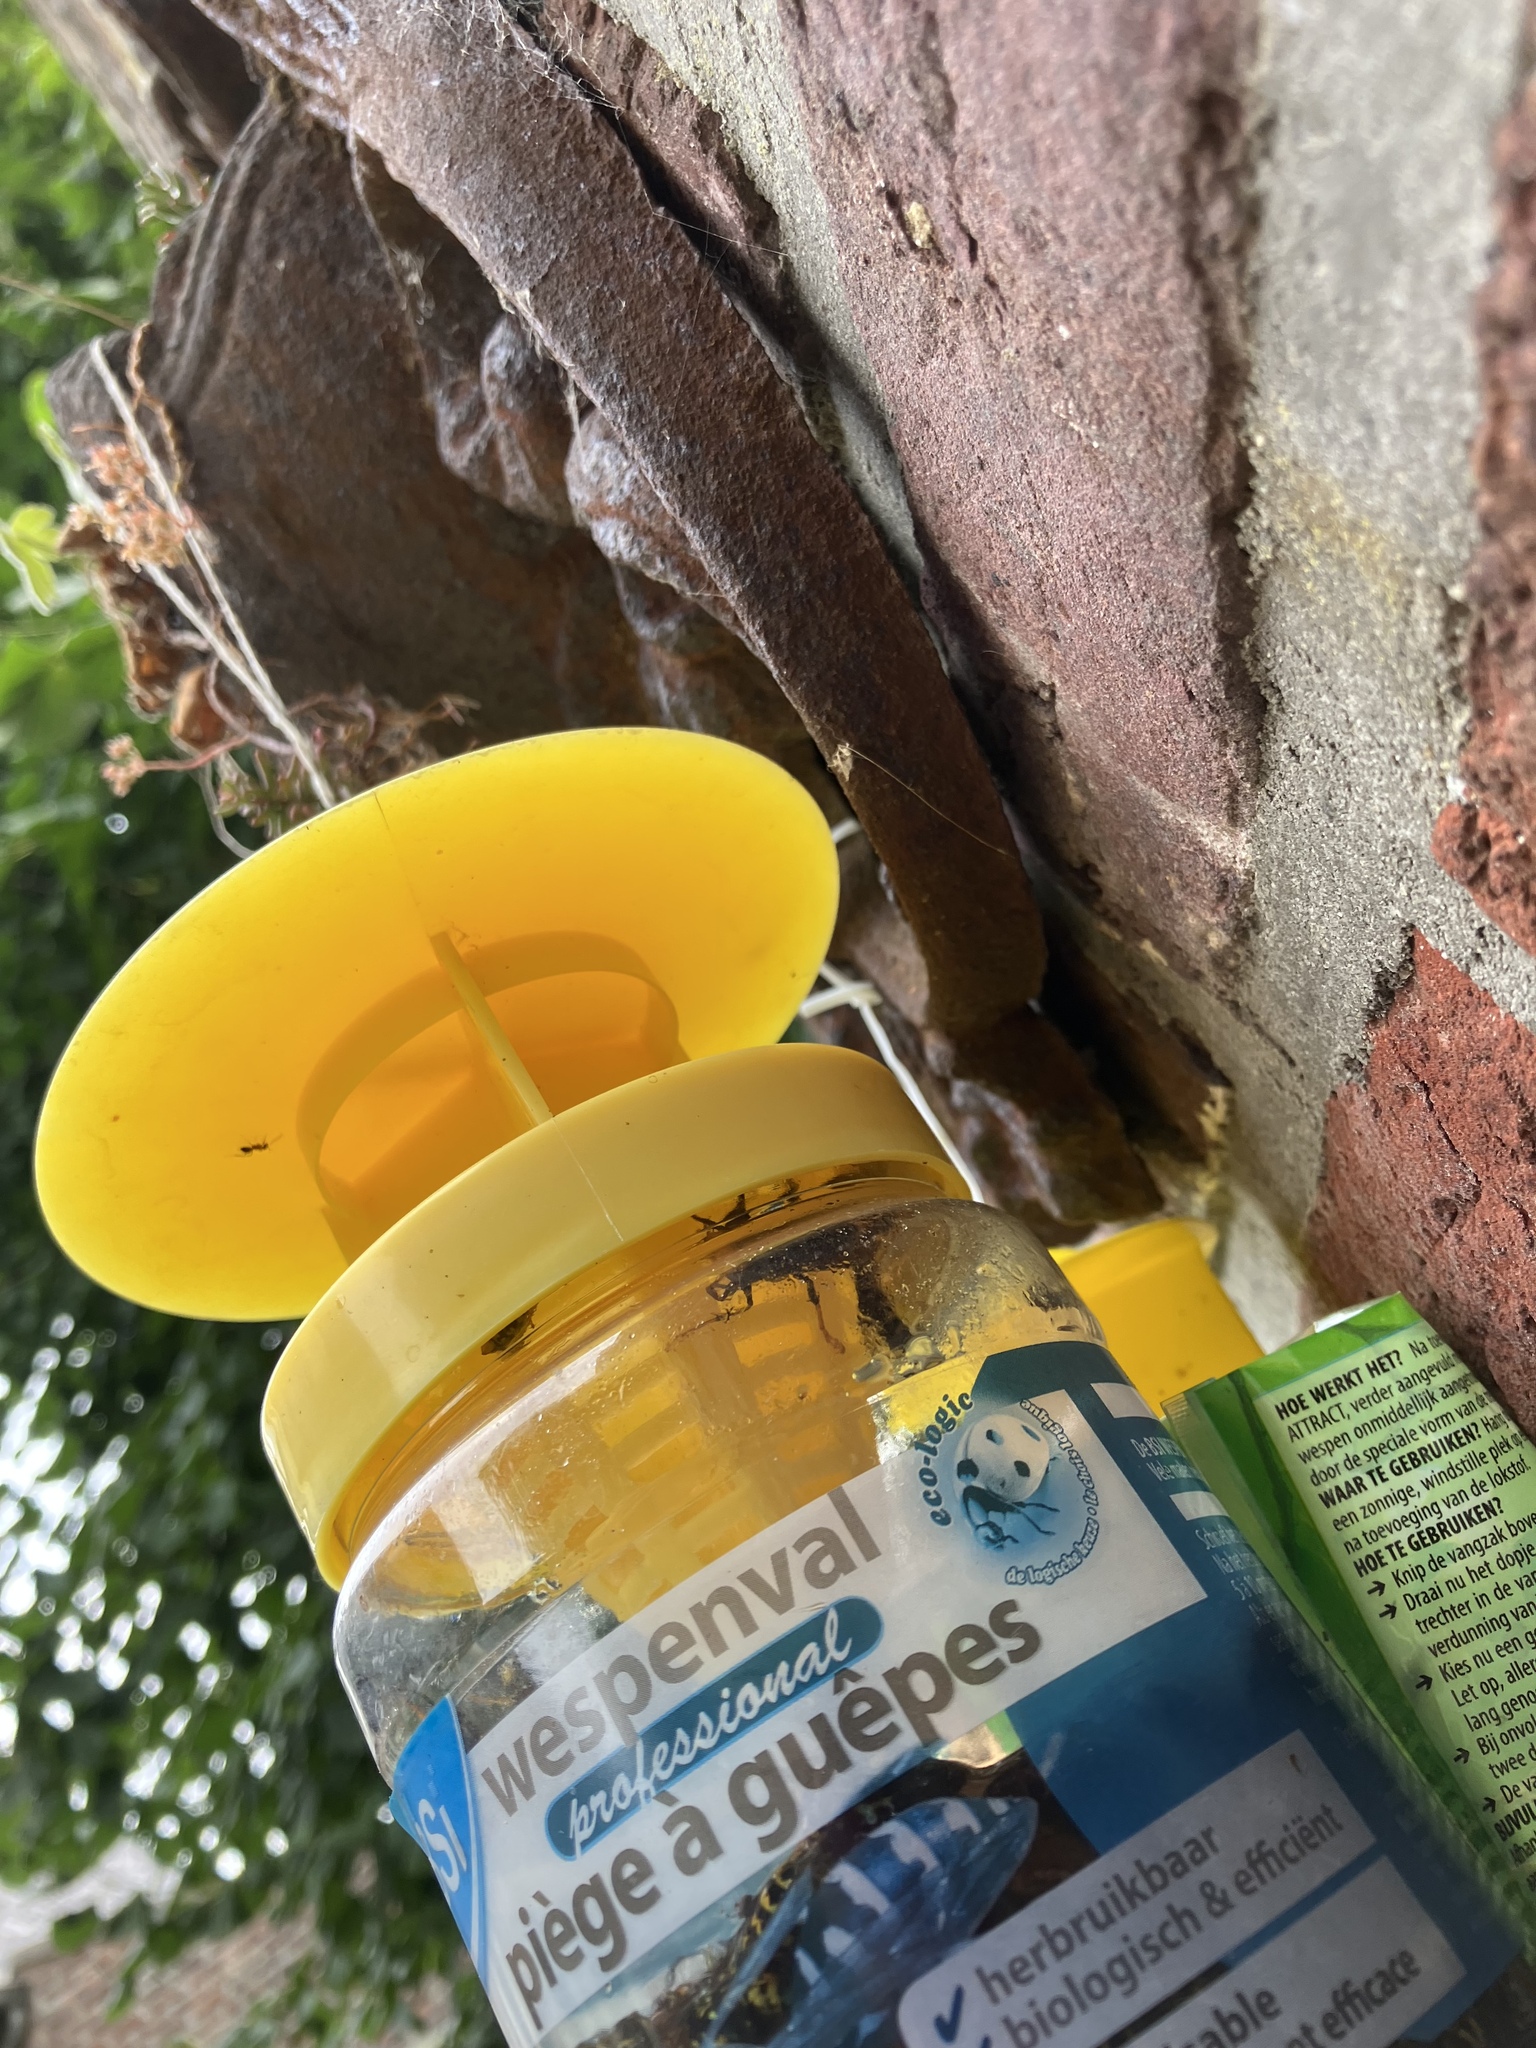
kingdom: Animalia
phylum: Arthropoda
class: Insecta
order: Hymenoptera
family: Vespidae
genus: Vespa
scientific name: Vespa velutina
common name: Asian hornet
